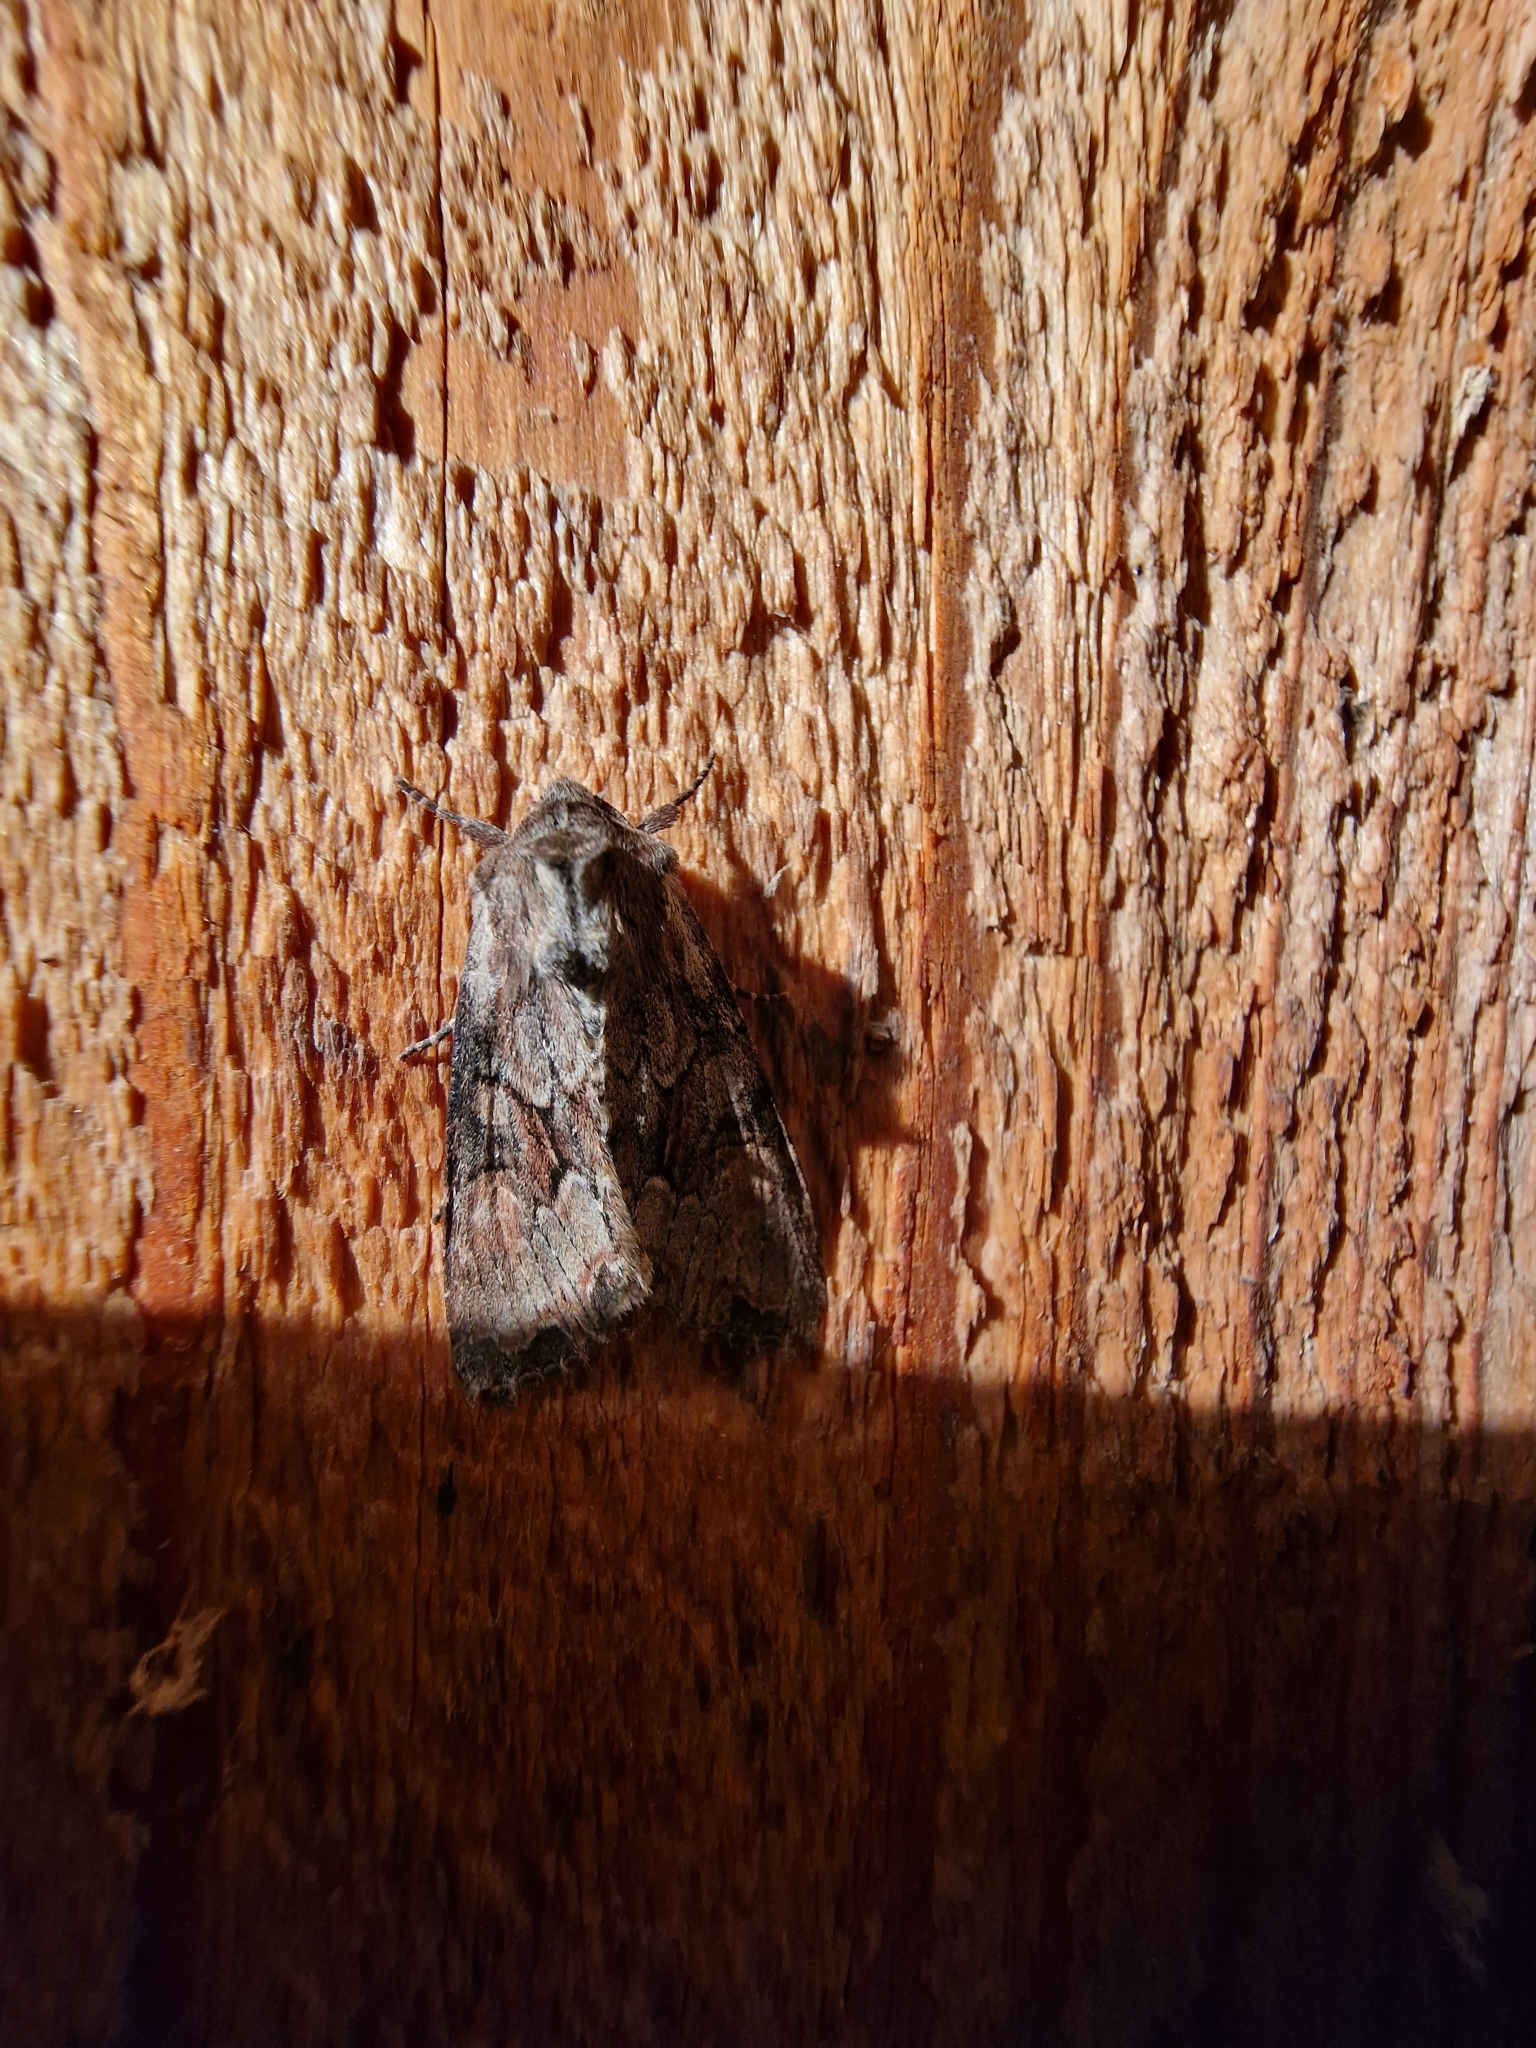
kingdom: Animalia
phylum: Arthropoda
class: Insecta
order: Lepidoptera
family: Noctuidae
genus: Lacanobia
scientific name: Lacanobia thalassina
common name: Pale-shouldered brocade
